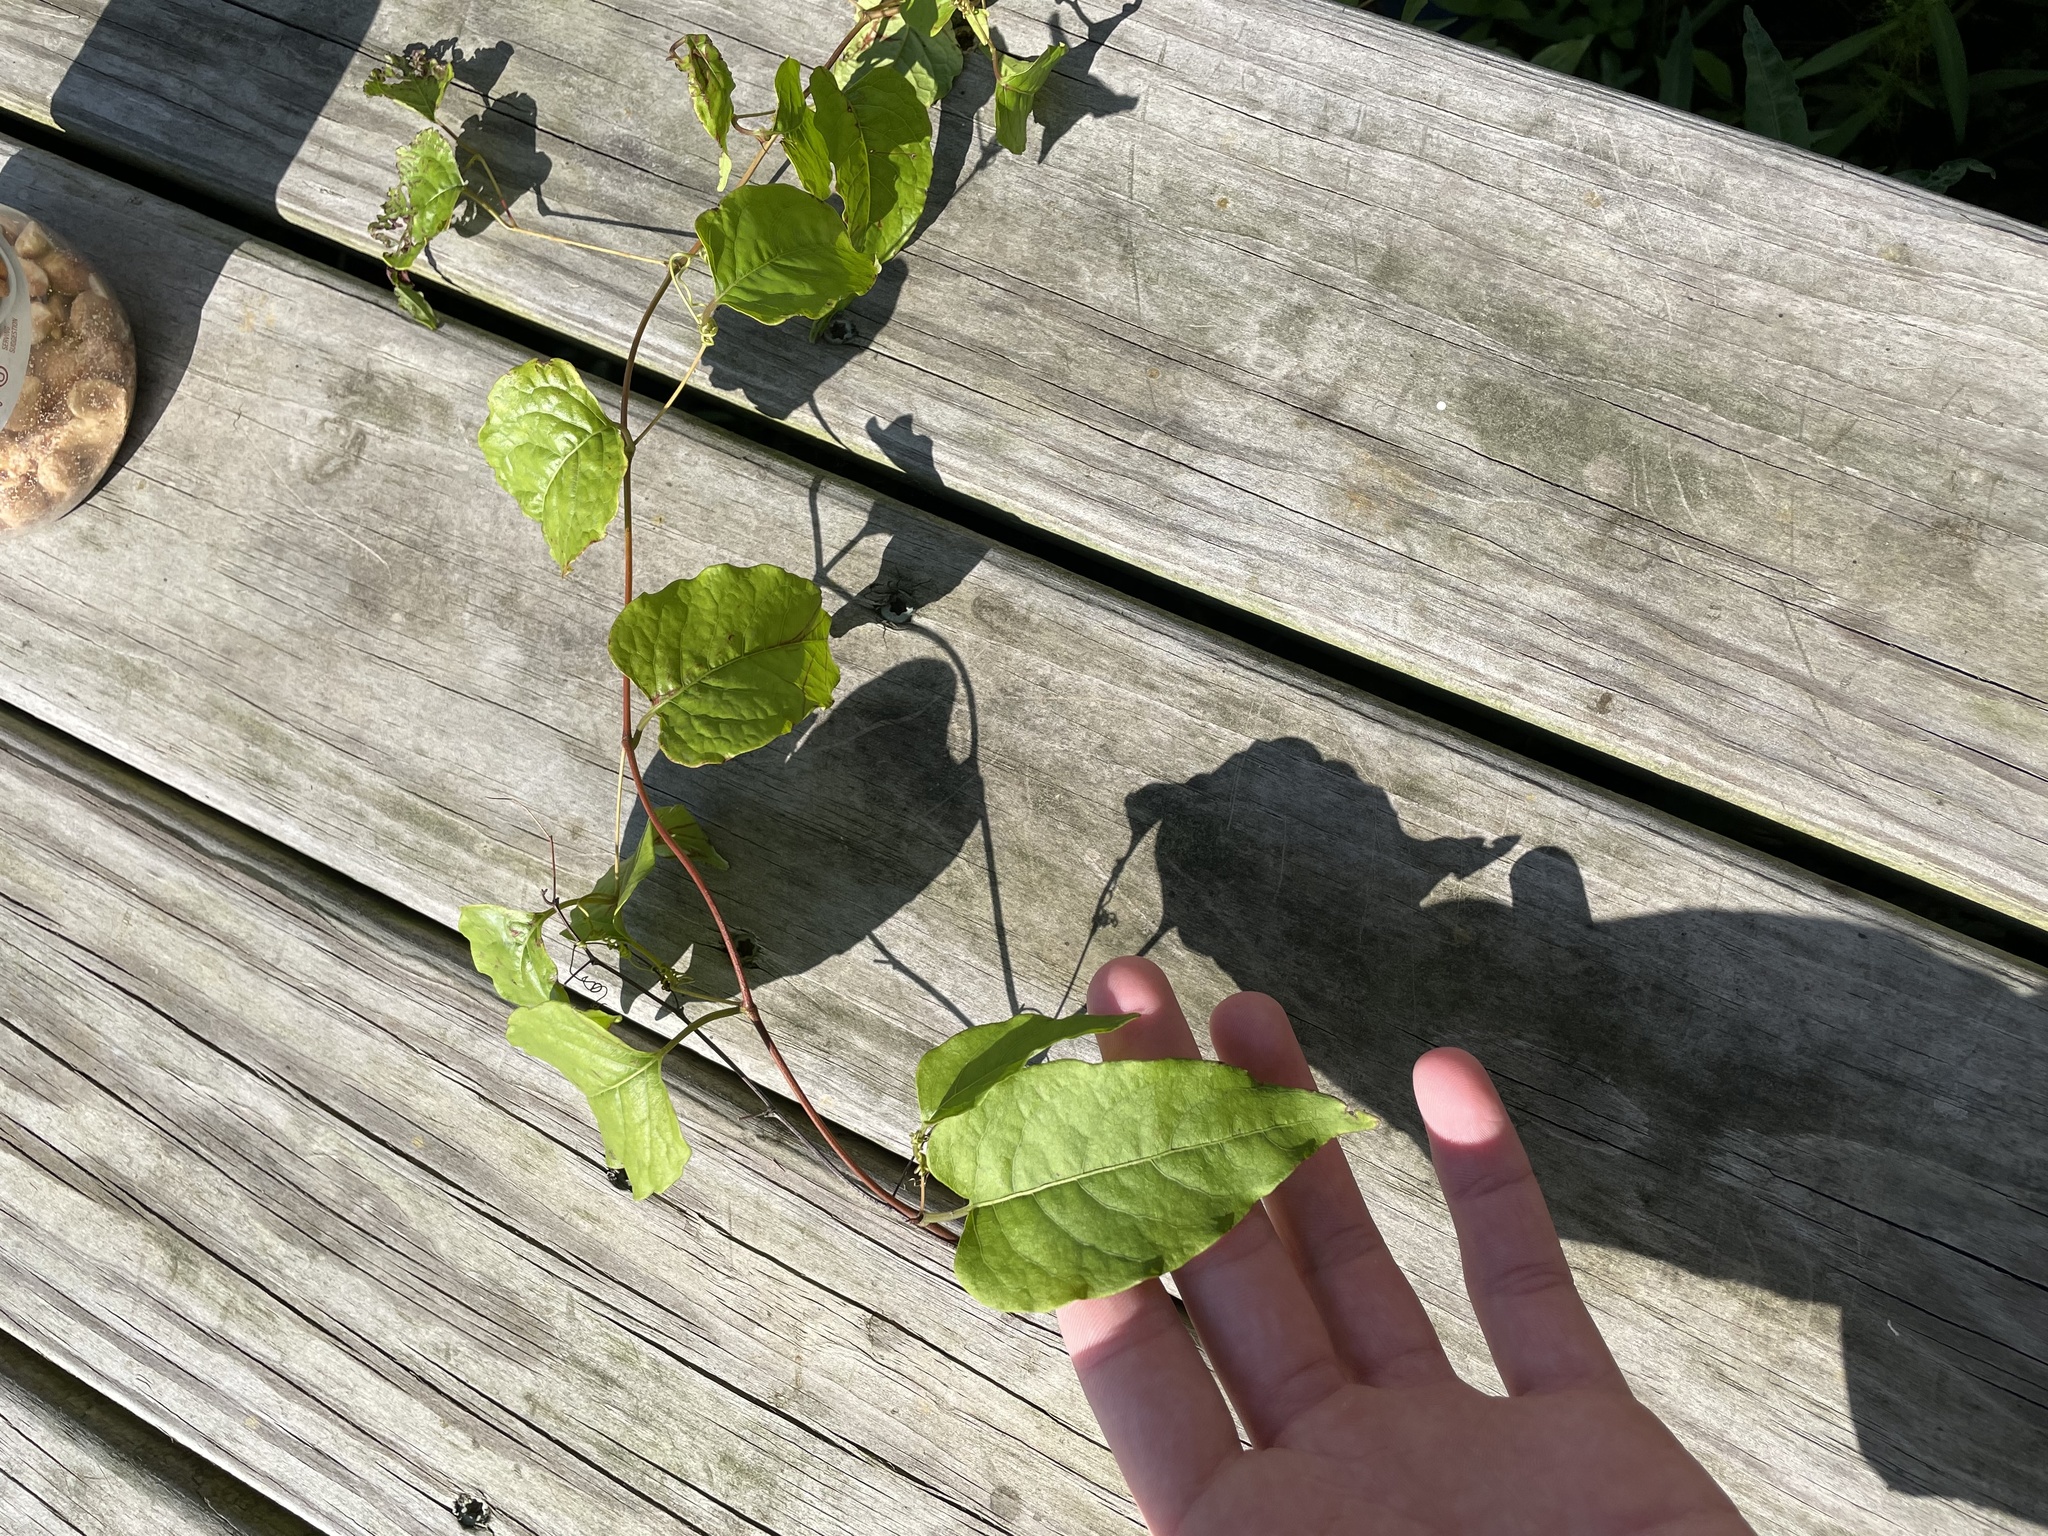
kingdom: Plantae
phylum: Tracheophyta
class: Magnoliopsida
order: Caryophyllales
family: Polygonaceae
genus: Brunnichia
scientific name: Brunnichia ovata
